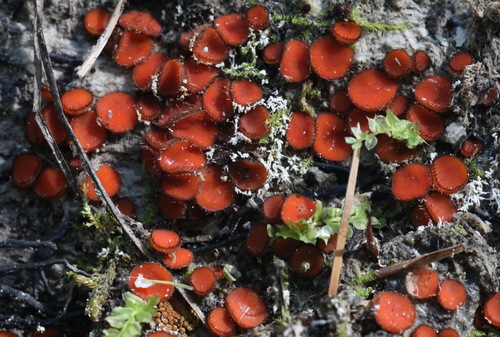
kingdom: Fungi
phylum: Ascomycota
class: Pezizomycetes
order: Pezizales
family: Pyronemataceae
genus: Scutellinia
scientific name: Scutellinia scutellata
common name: Common eyelash
